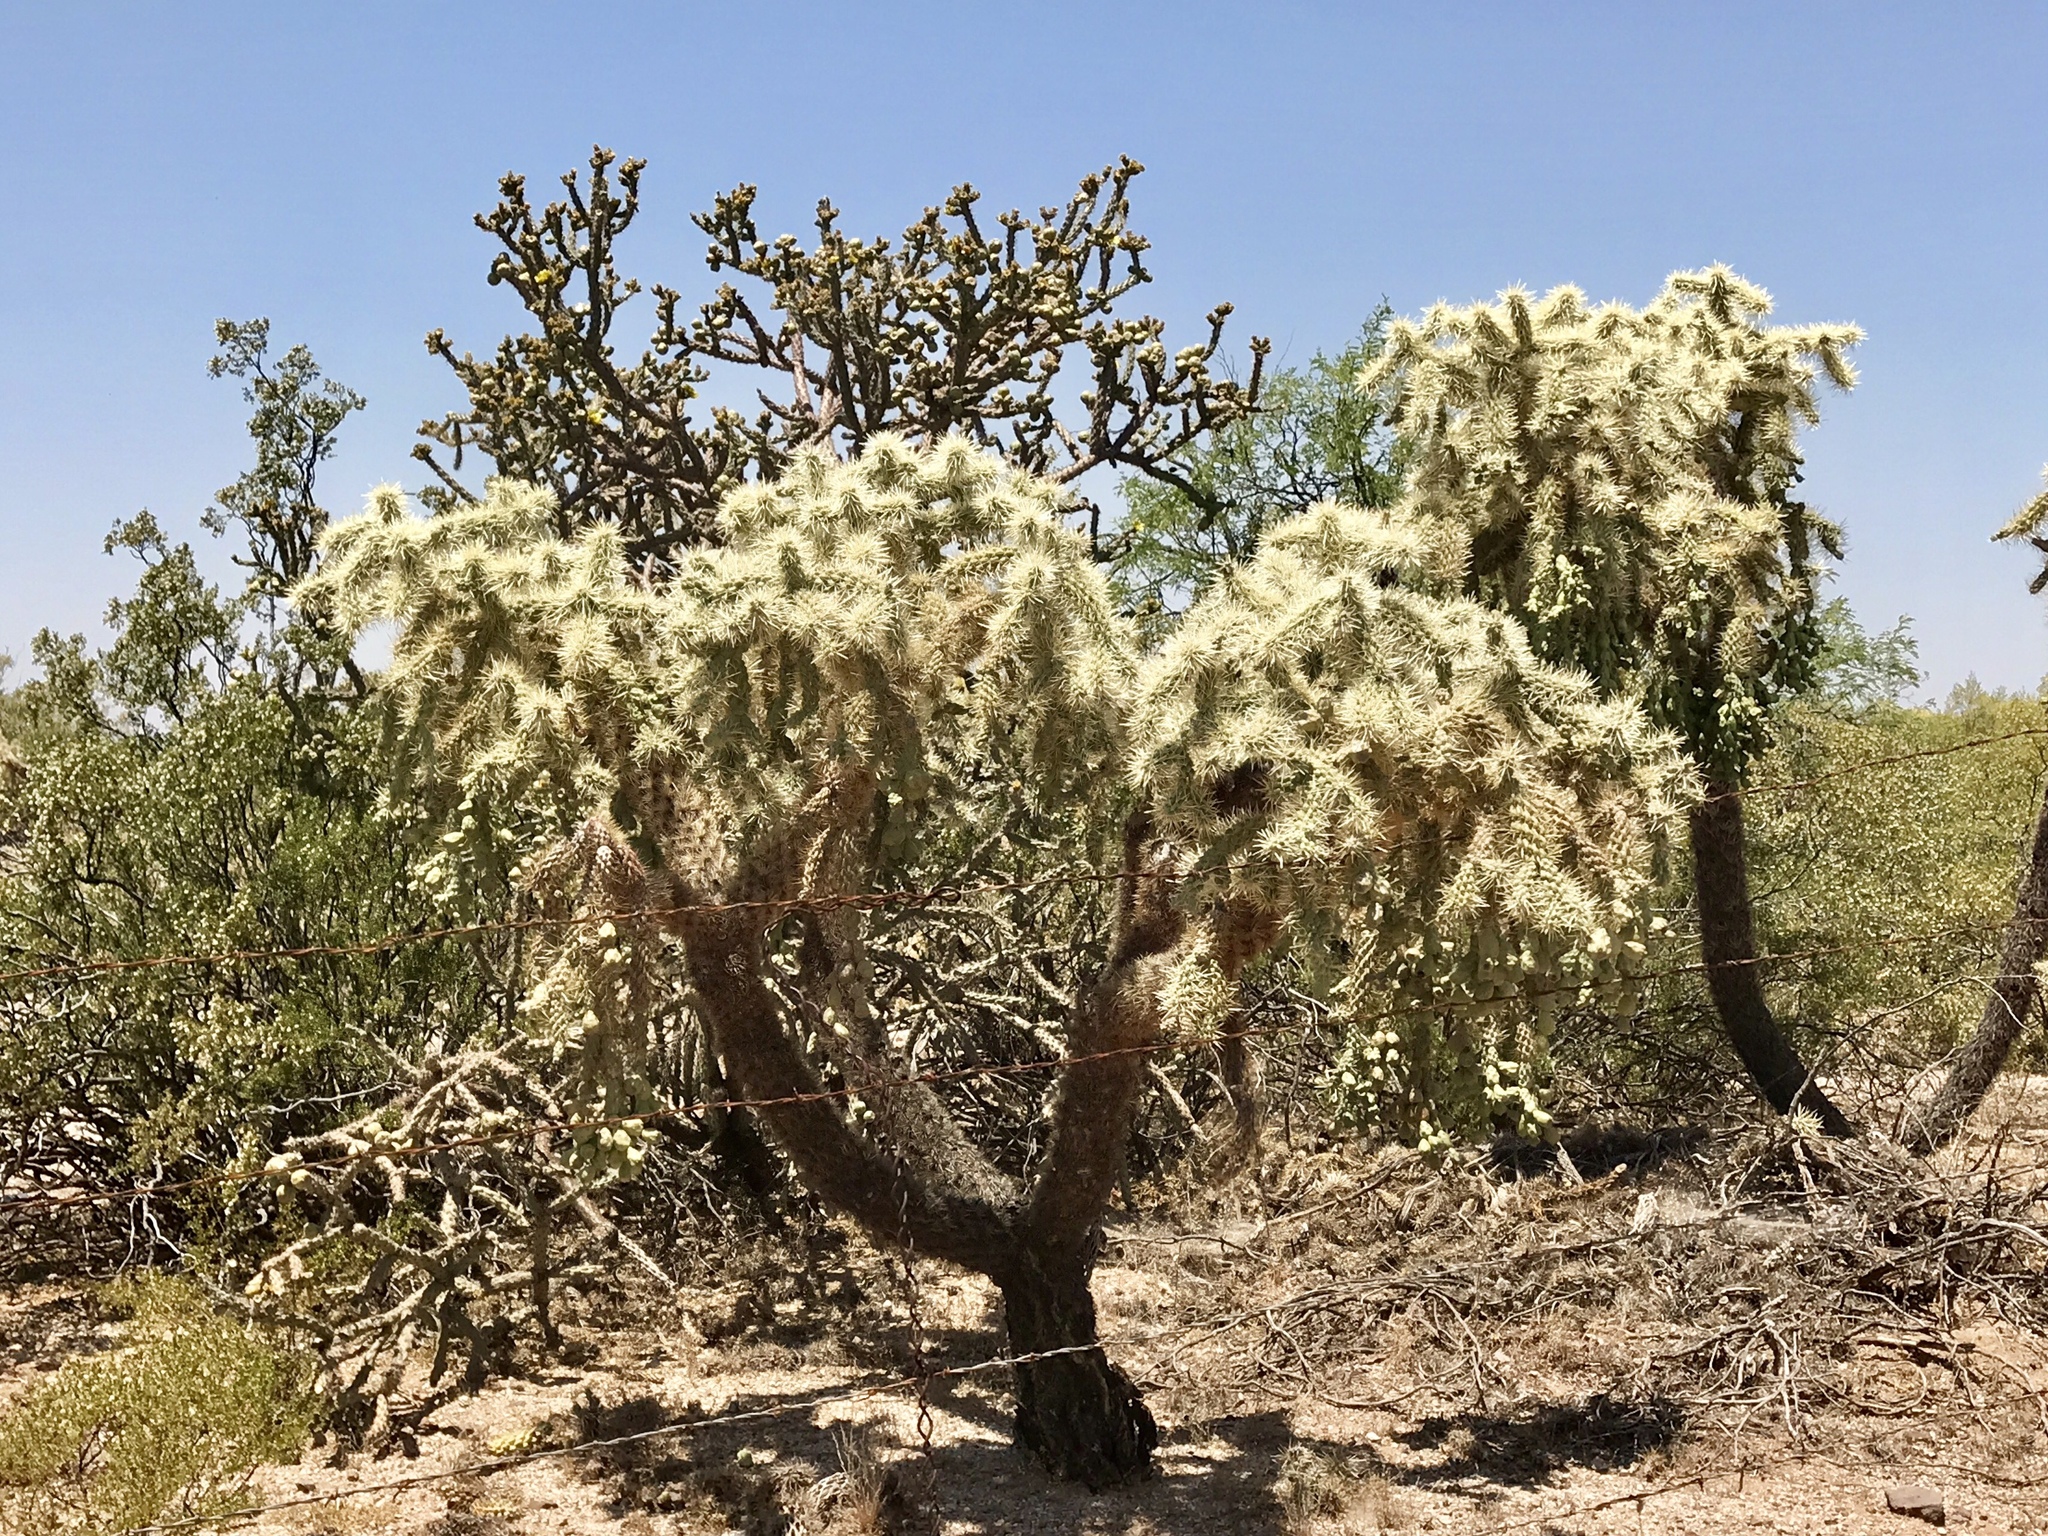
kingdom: Plantae
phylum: Tracheophyta
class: Magnoliopsida
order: Caryophyllales
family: Cactaceae
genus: Cylindropuntia
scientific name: Cylindropuntia fulgida
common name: Jumping cholla
